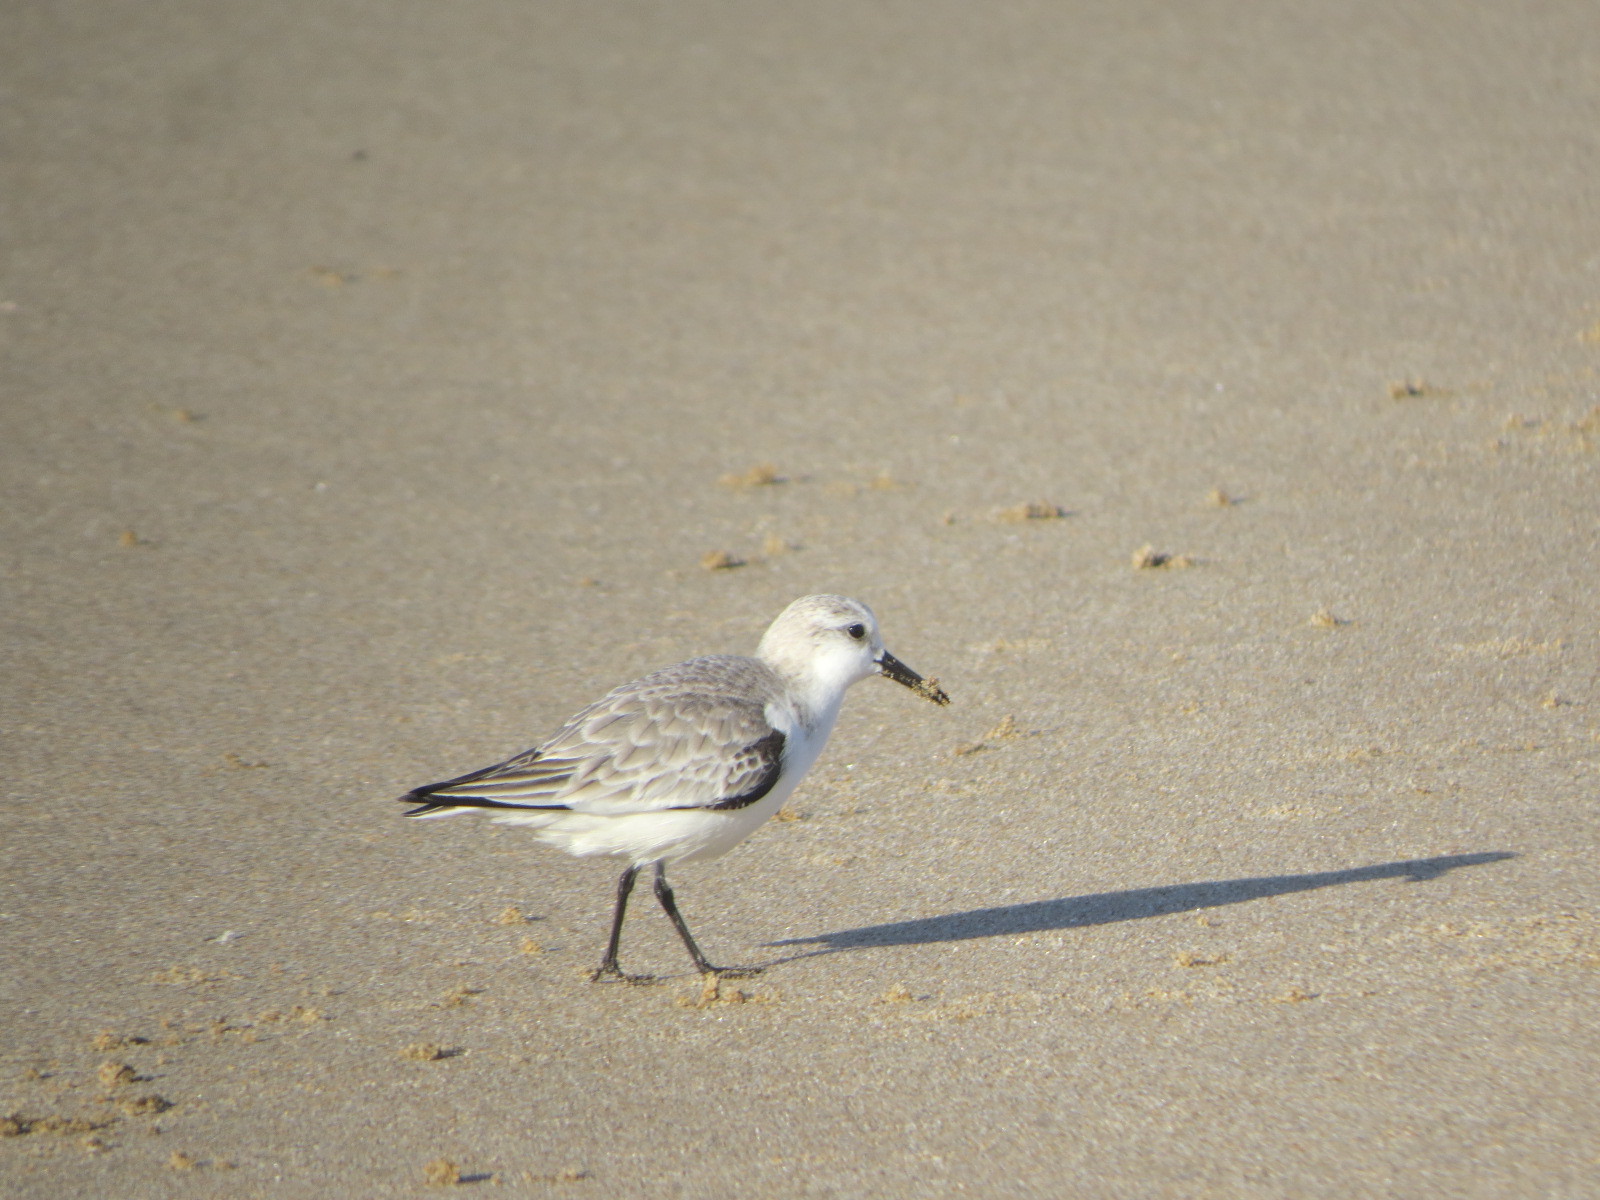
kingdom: Animalia
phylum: Chordata
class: Aves
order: Charadriiformes
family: Scolopacidae
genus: Calidris
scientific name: Calidris alba
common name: Sanderling
